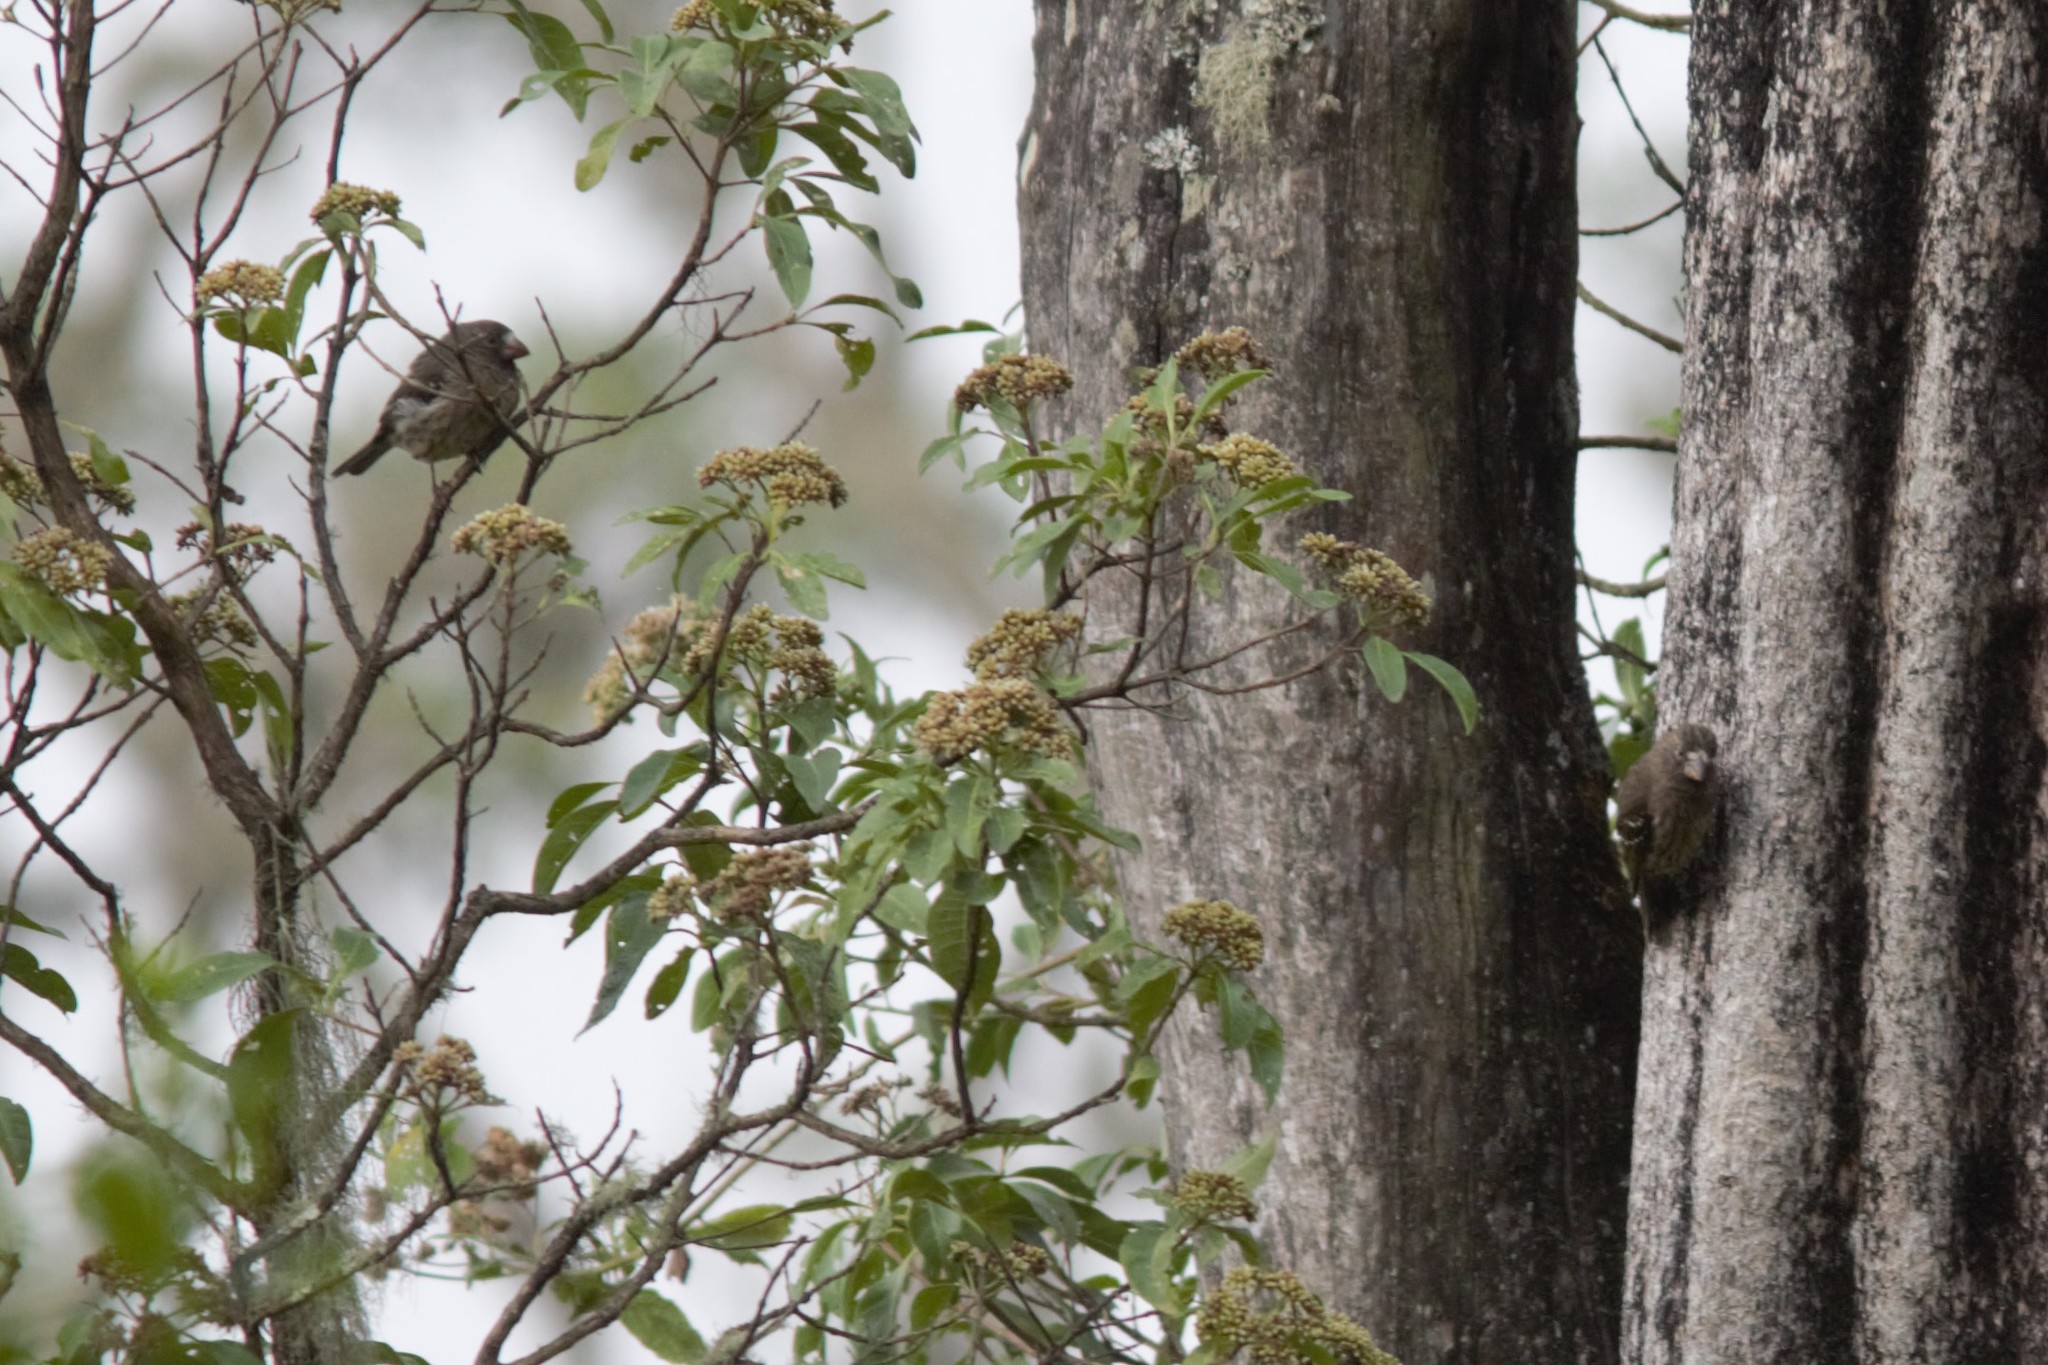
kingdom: Animalia
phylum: Chordata
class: Aves
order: Passeriformes
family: Fringillidae
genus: Crithagra
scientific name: Crithagra burtoni
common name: Thick-billed seedeater
